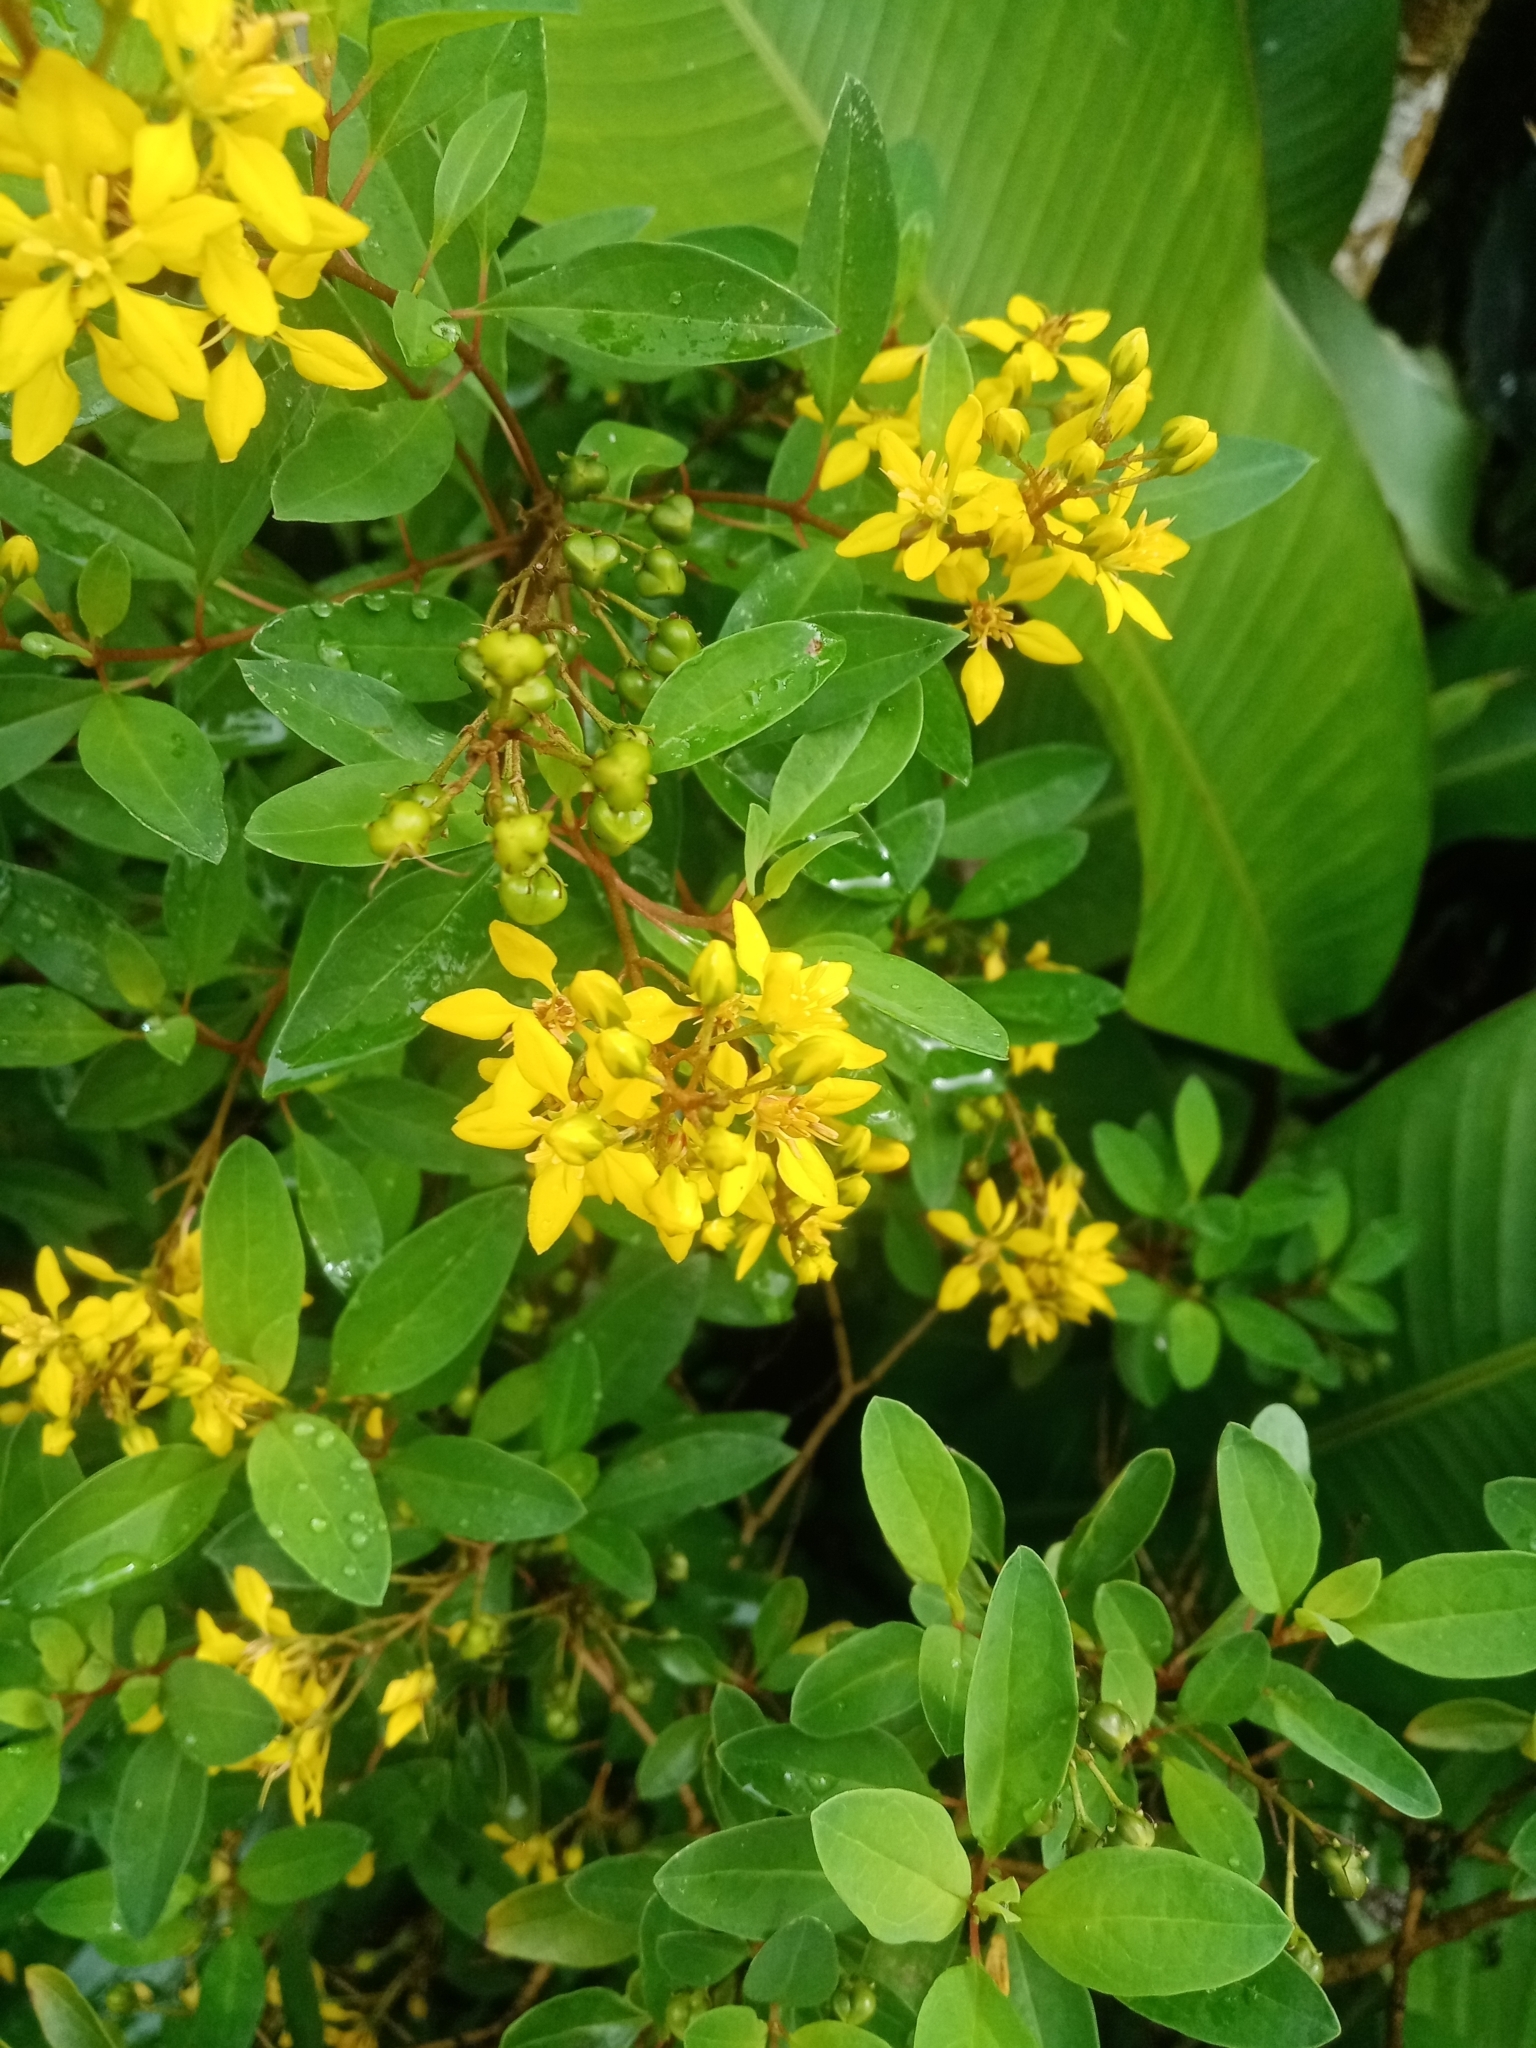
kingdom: Plantae
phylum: Tracheophyta
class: Magnoliopsida
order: Malpighiales
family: Malpighiaceae
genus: Galphimia
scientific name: Galphimia glauca
